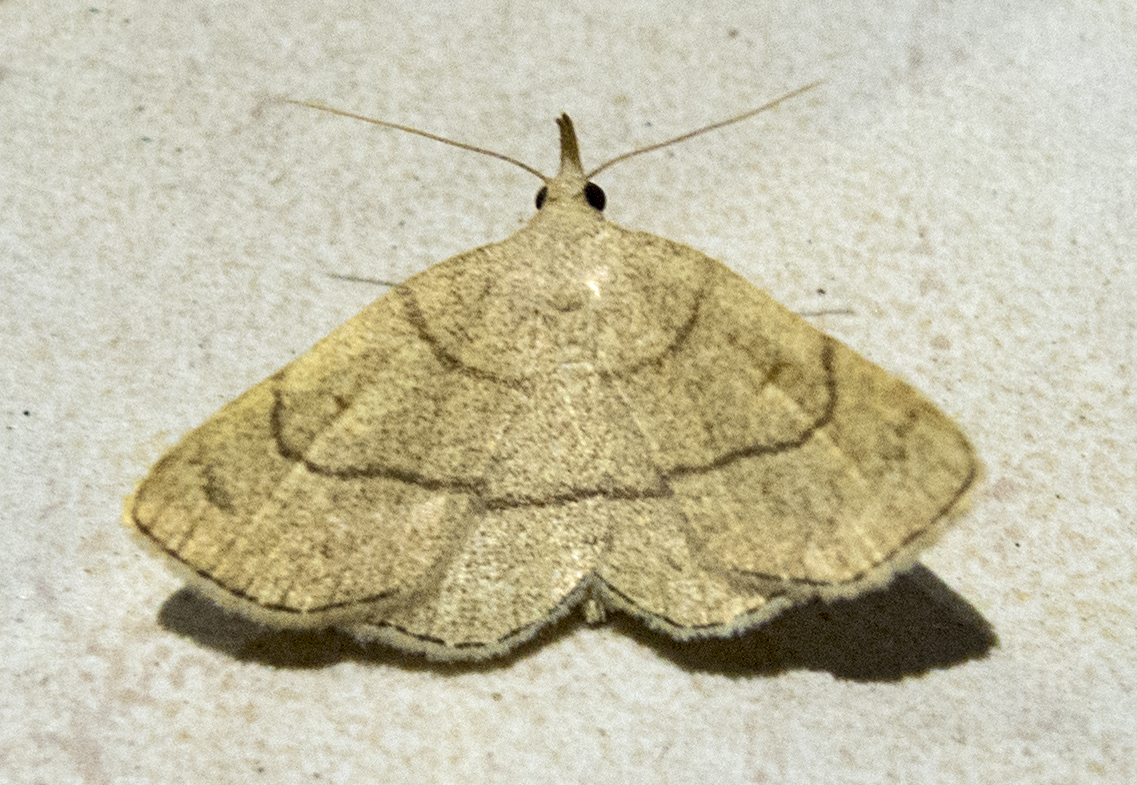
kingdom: Animalia
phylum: Arthropoda
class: Insecta
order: Lepidoptera
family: Erebidae
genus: Paracolax
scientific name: Paracolax tristalis
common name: Clay fan-foot
